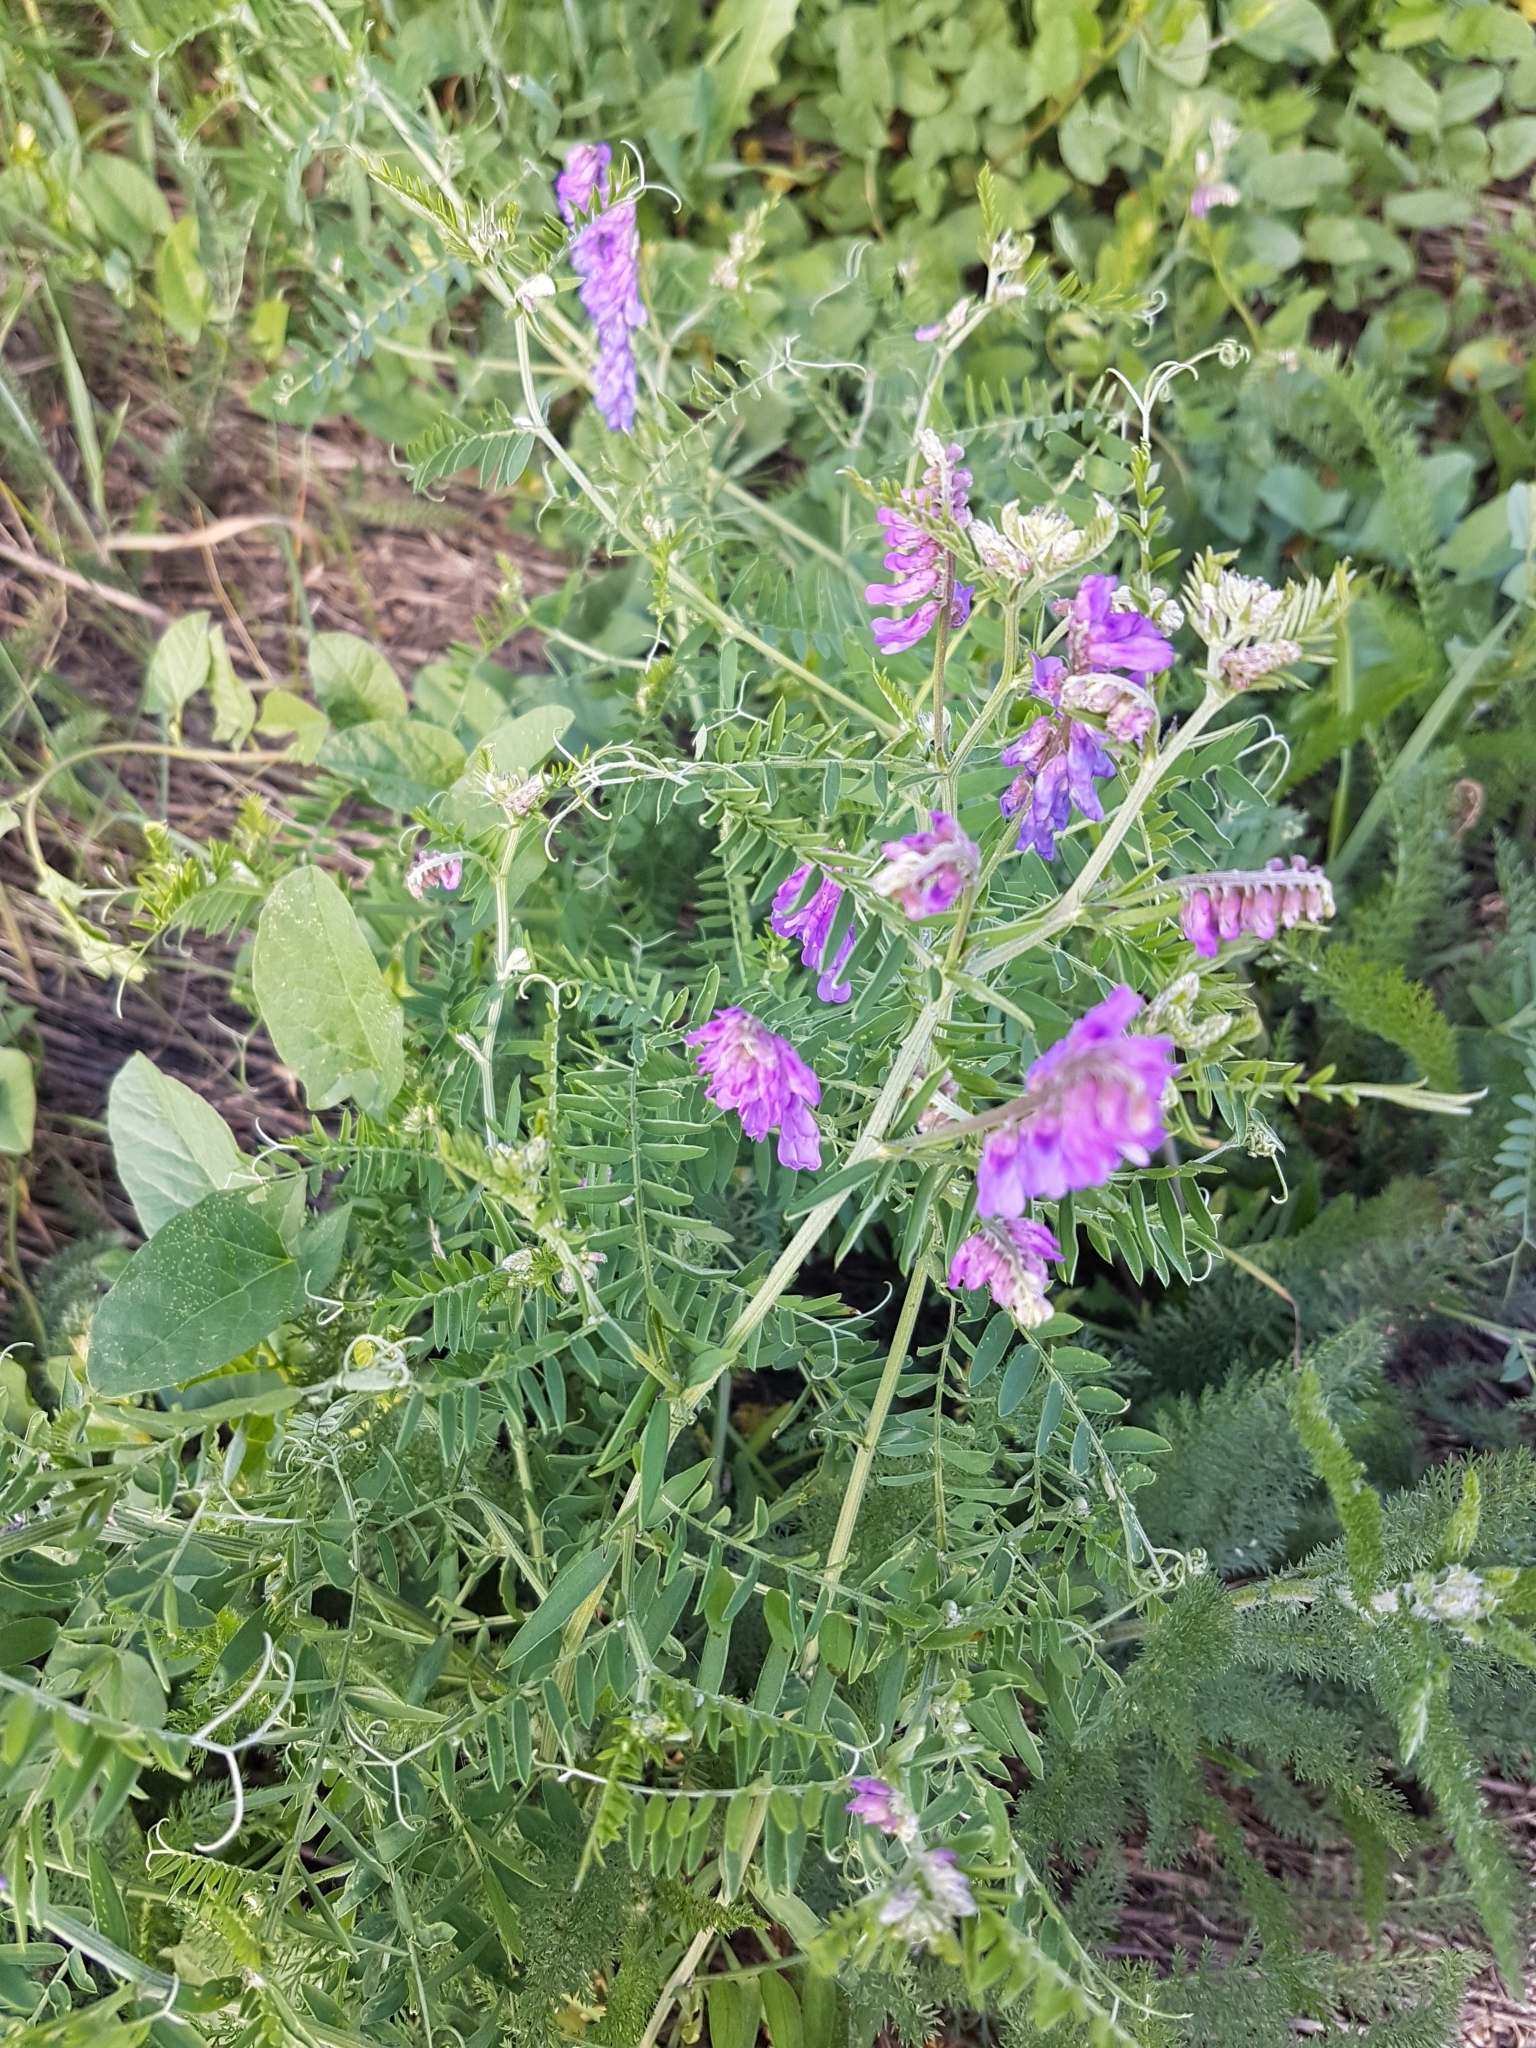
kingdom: Plantae
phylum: Tracheophyta
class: Magnoliopsida
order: Fabales
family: Fabaceae
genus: Vicia
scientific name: Vicia cracca
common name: Bird vetch
